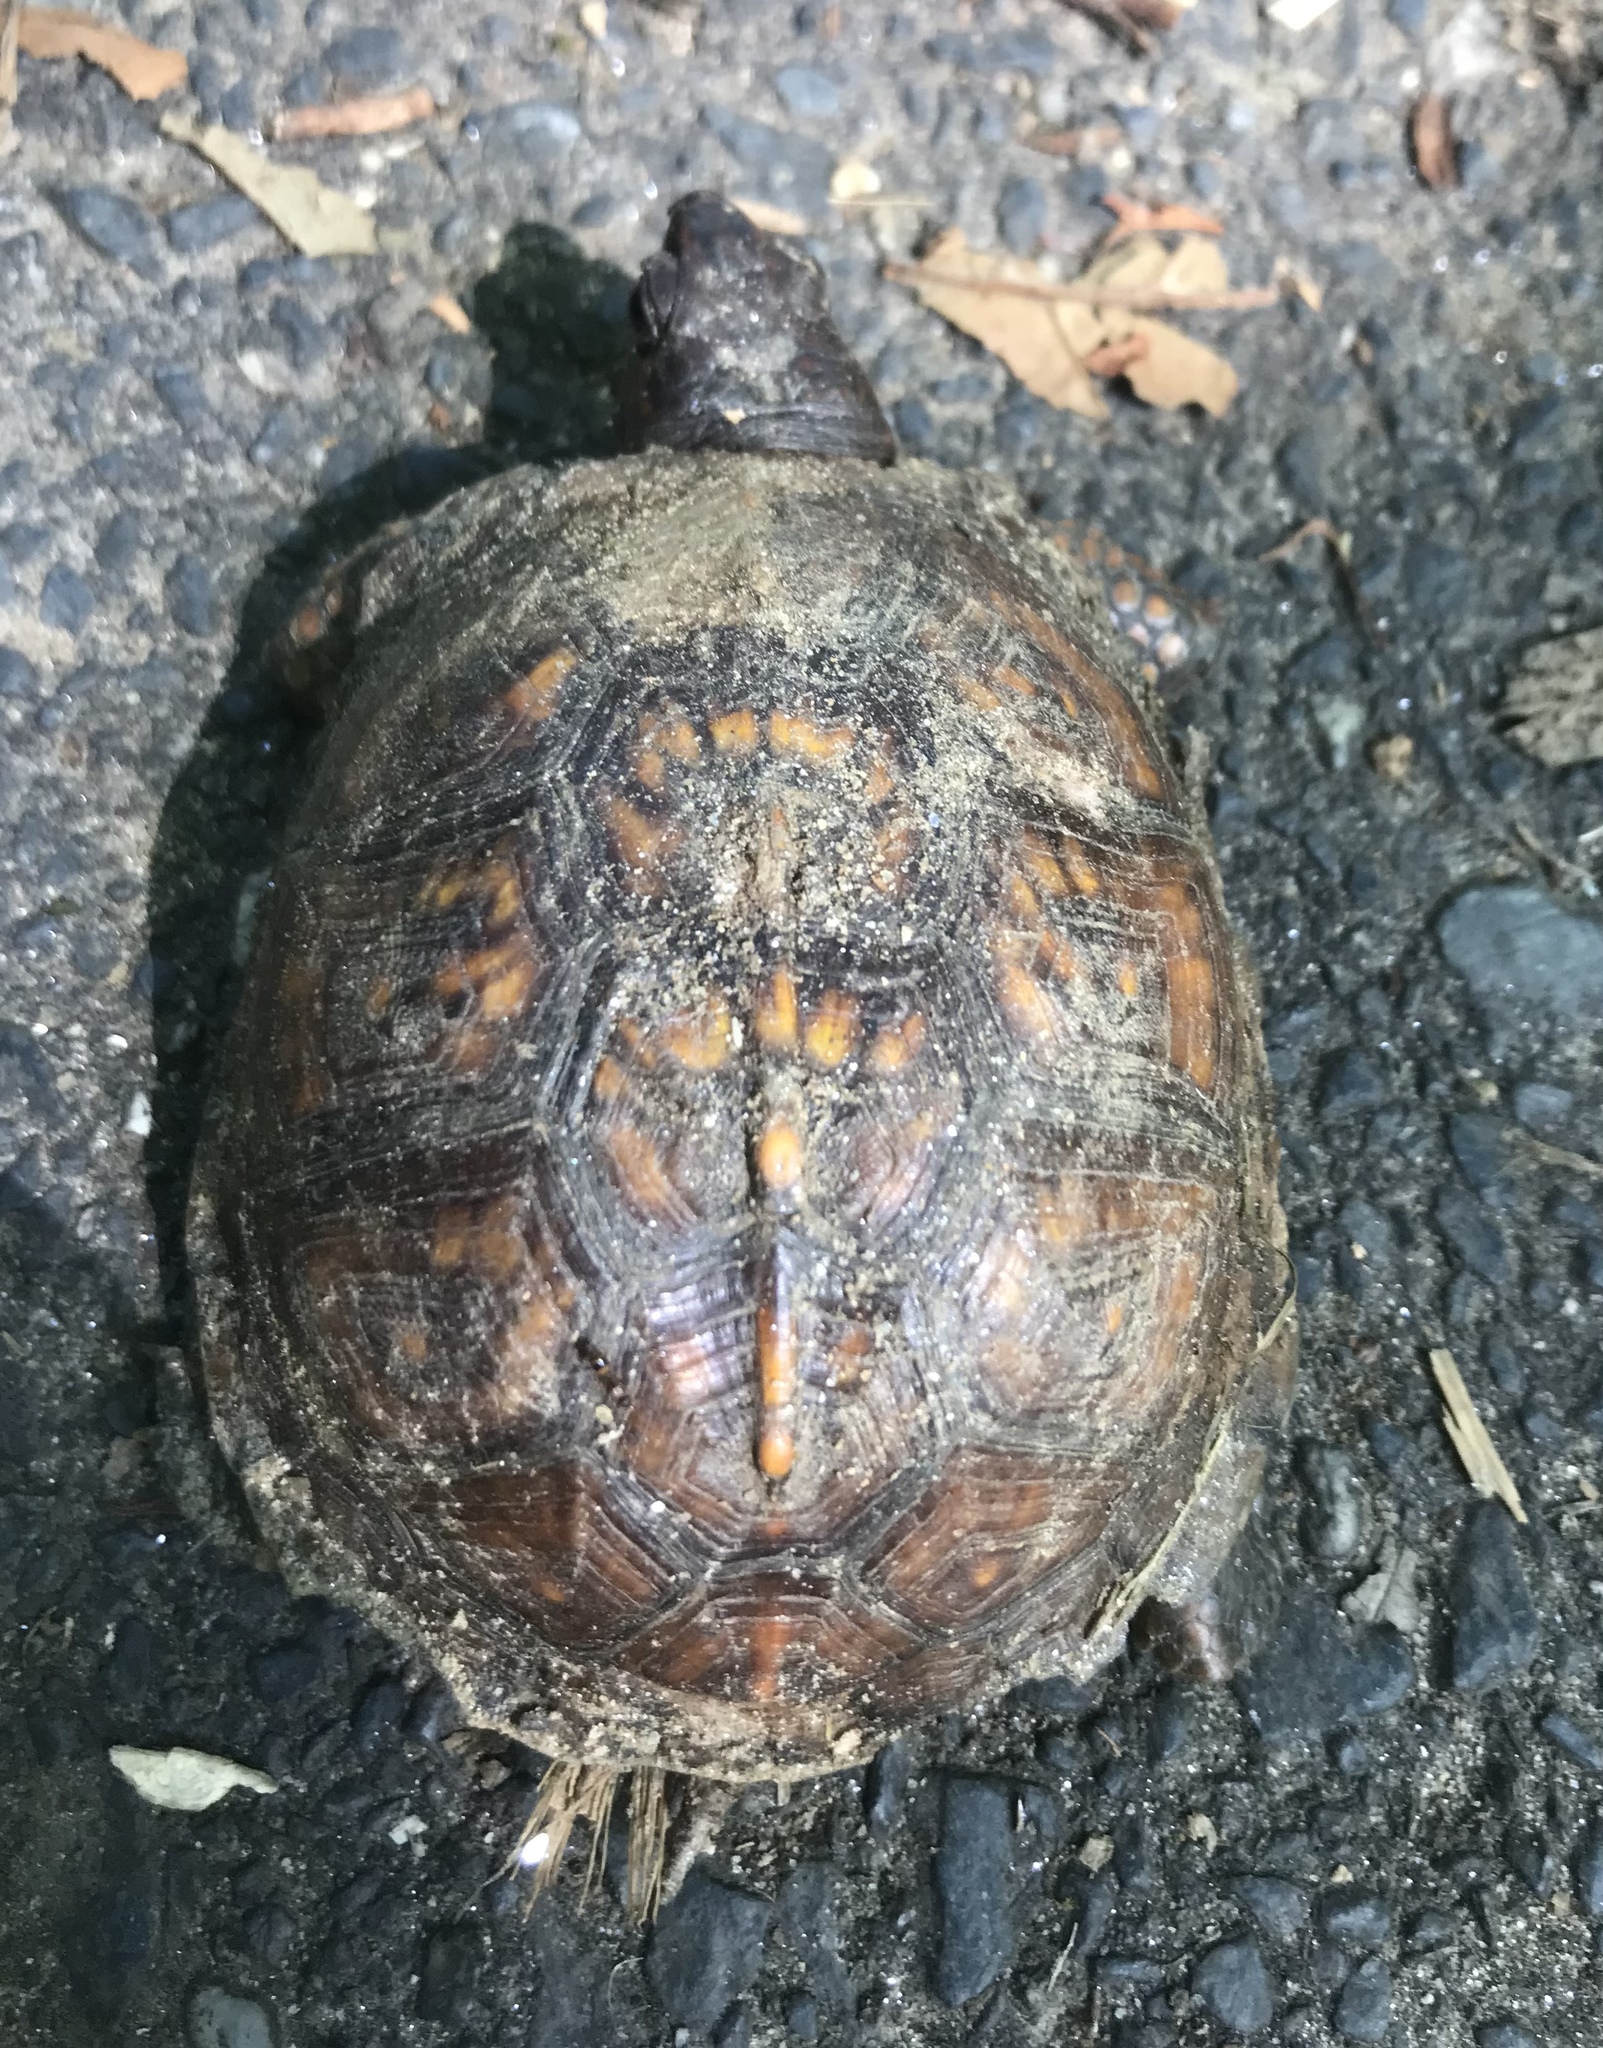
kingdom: Animalia
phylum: Chordata
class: Testudines
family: Emydidae
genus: Terrapene
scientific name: Terrapene carolina
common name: Common box turtle
